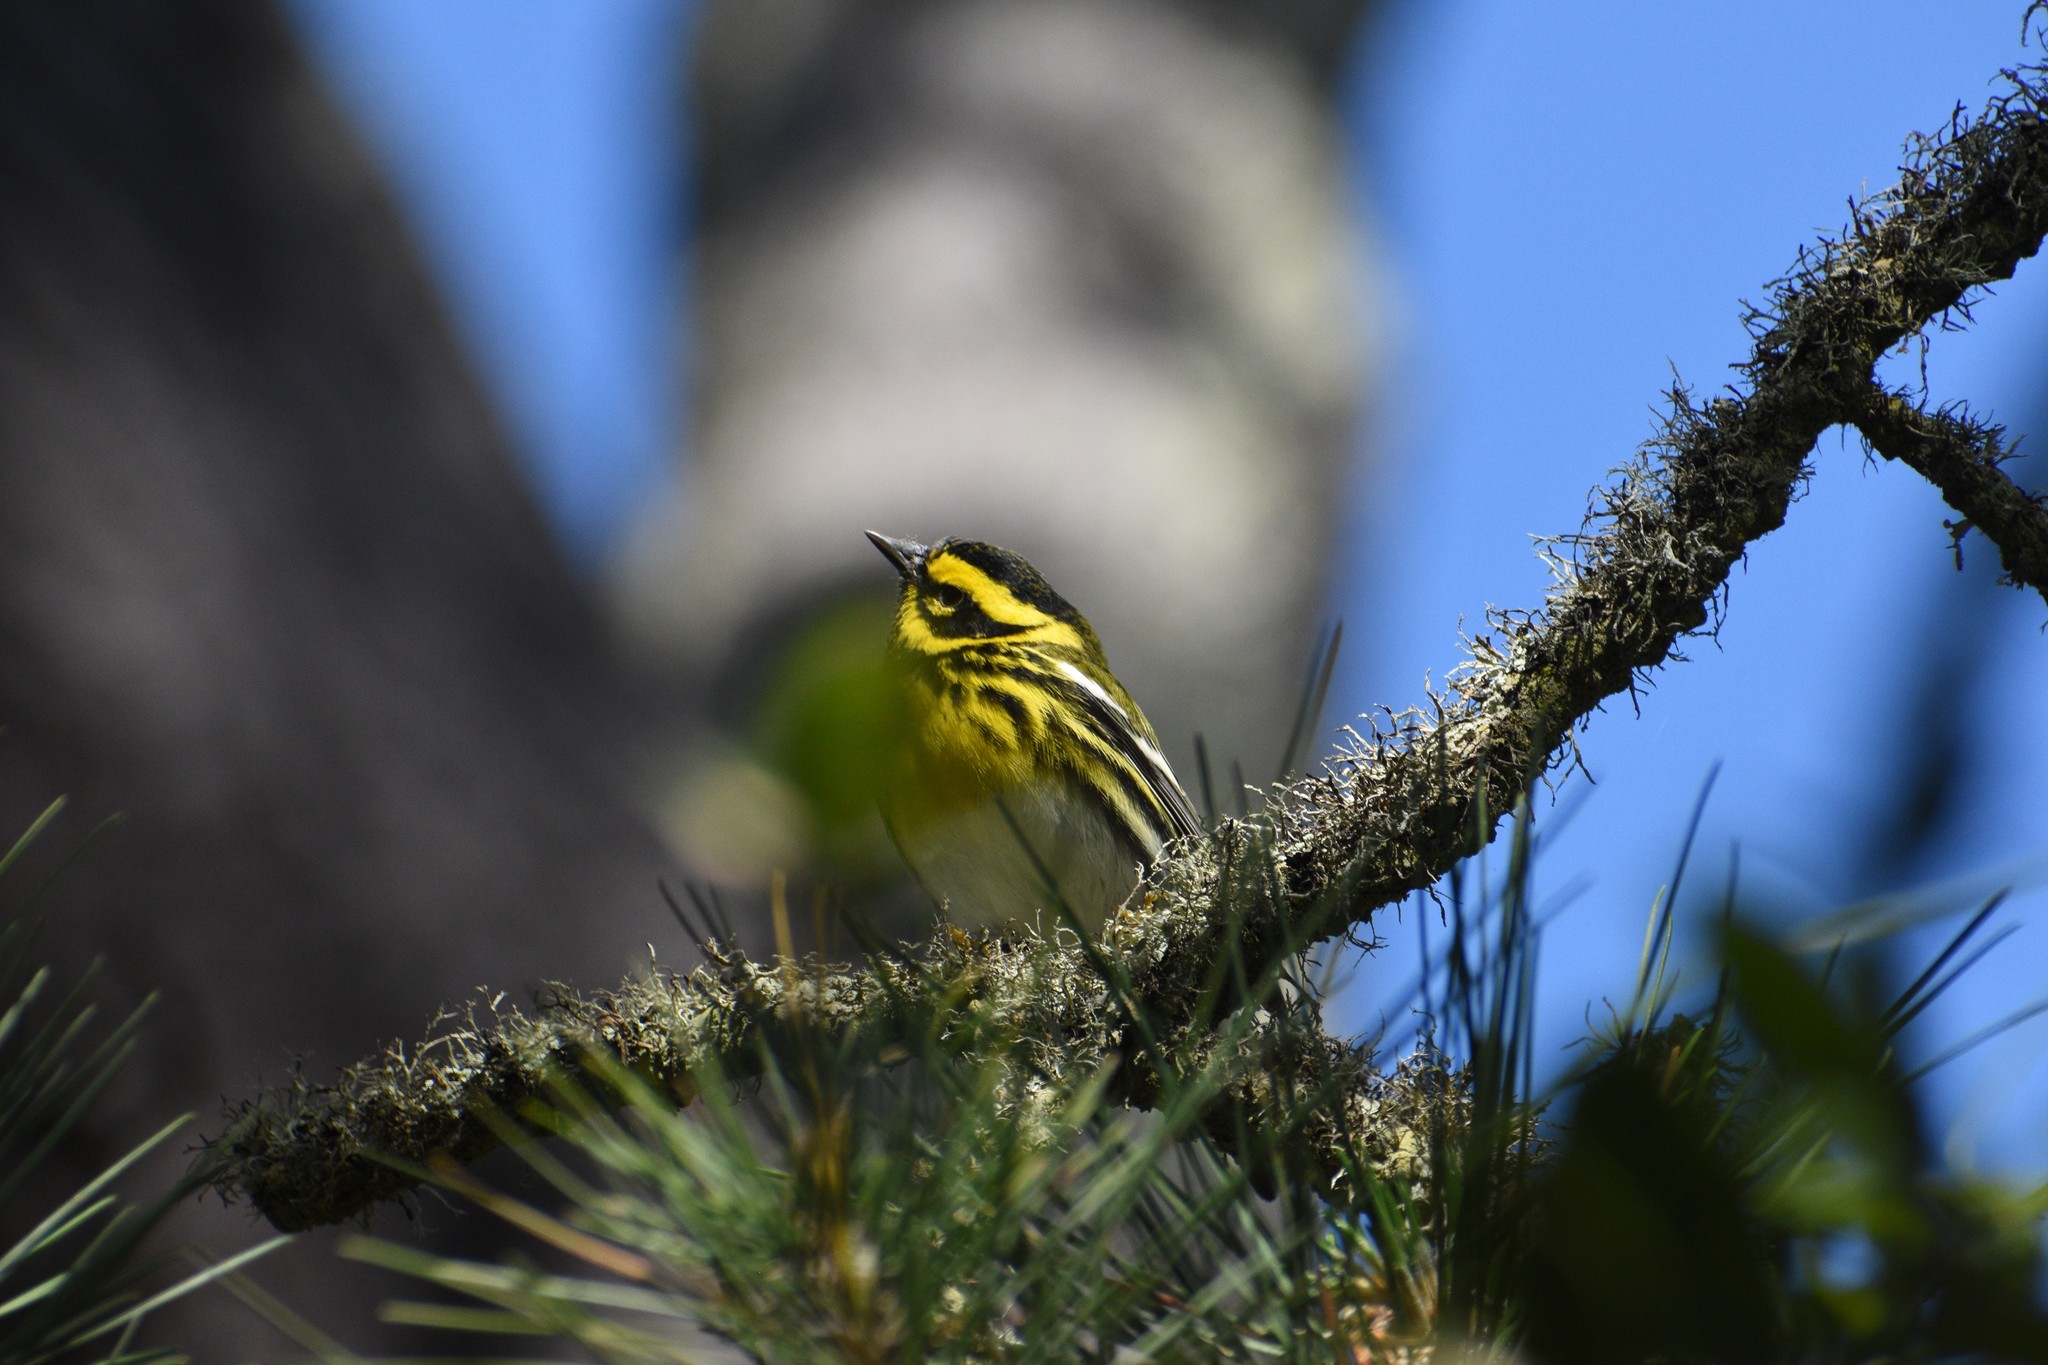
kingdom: Animalia
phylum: Chordata
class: Aves
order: Passeriformes
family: Parulidae
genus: Setophaga
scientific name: Setophaga townsendi
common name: Townsend's warbler
